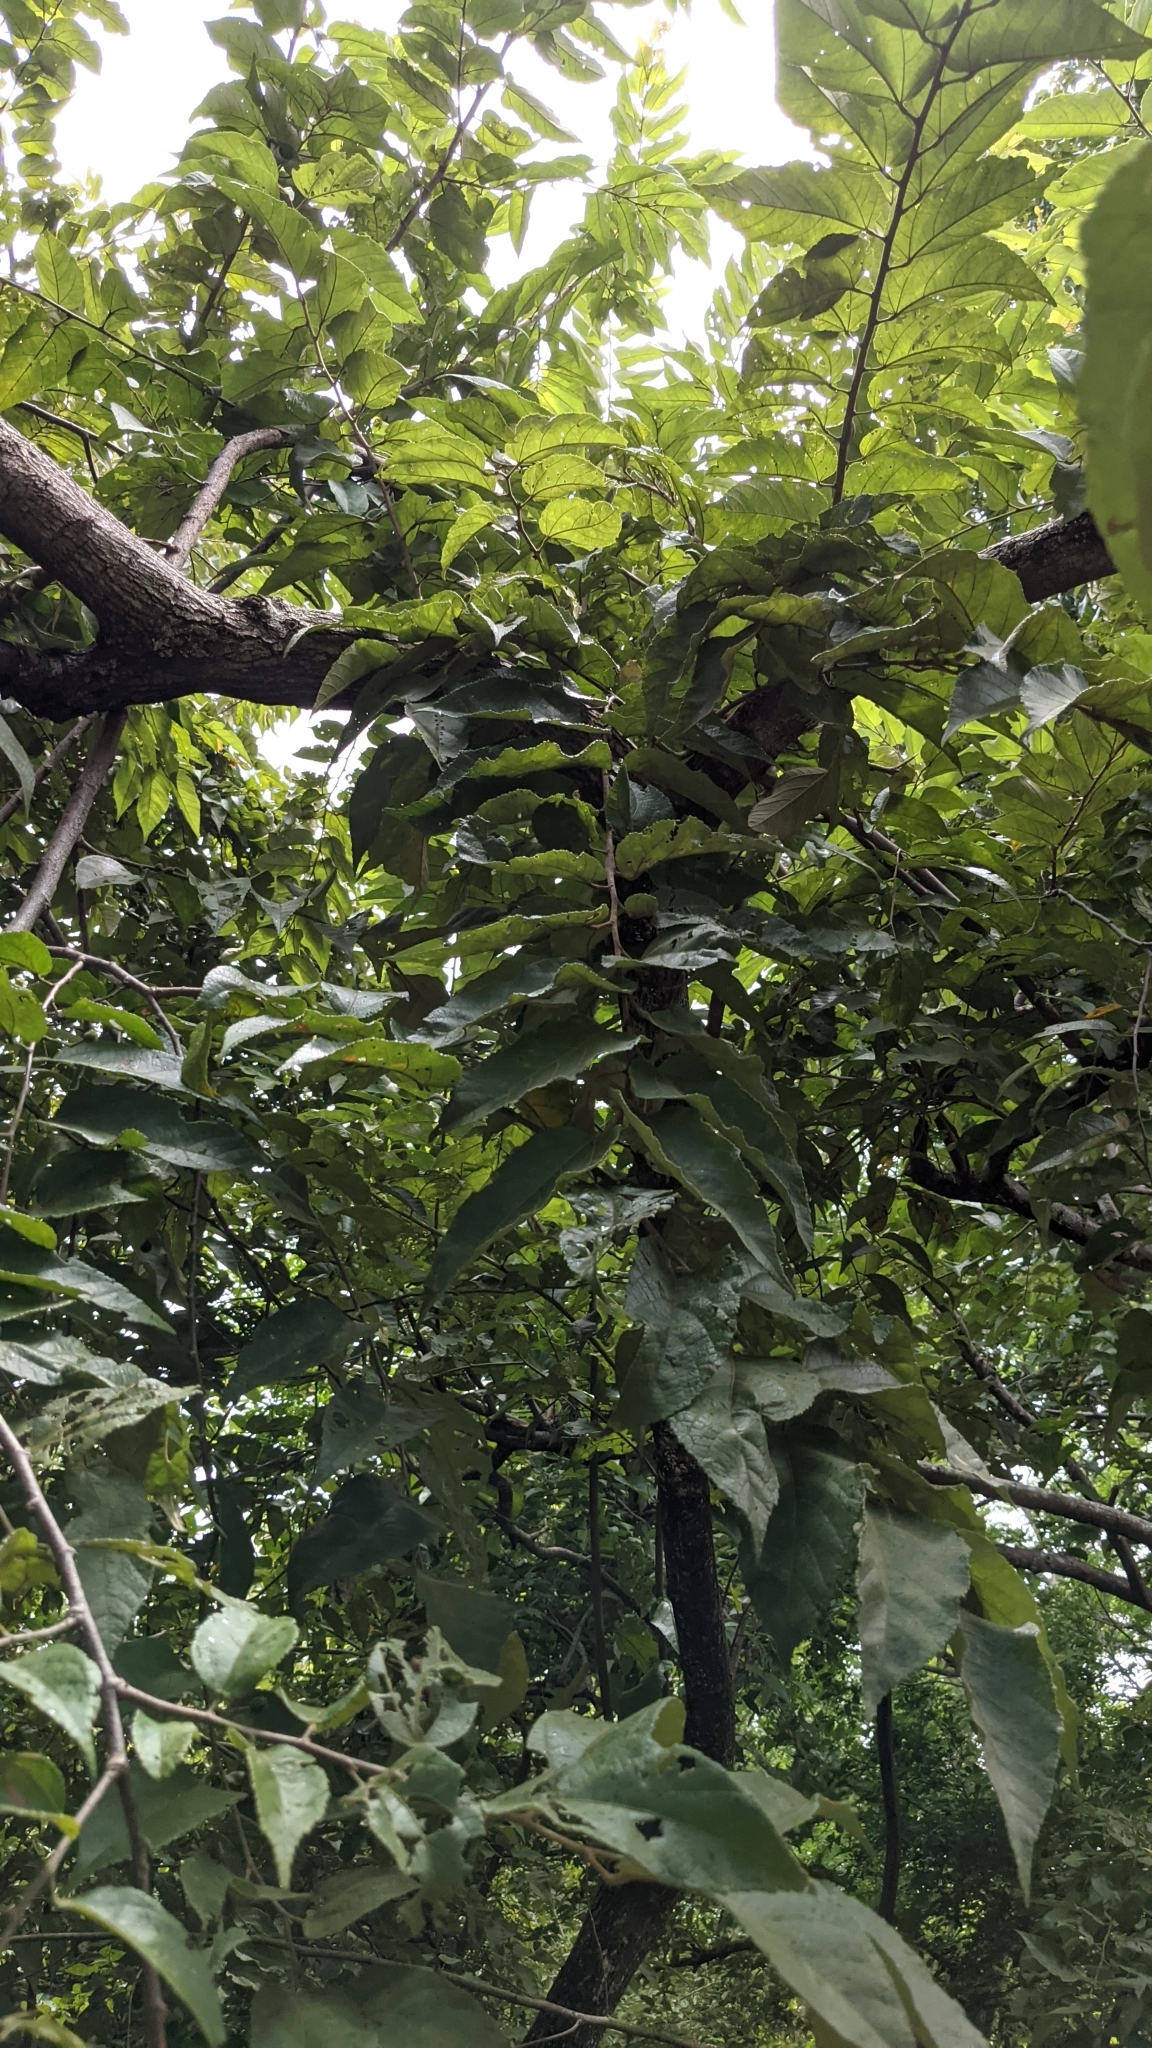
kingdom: Plantae
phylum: Tracheophyta
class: Magnoliopsida
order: Malvales
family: Malvaceae
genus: Guazuma
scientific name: Guazuma ulmifolia
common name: Bastard-cedar
